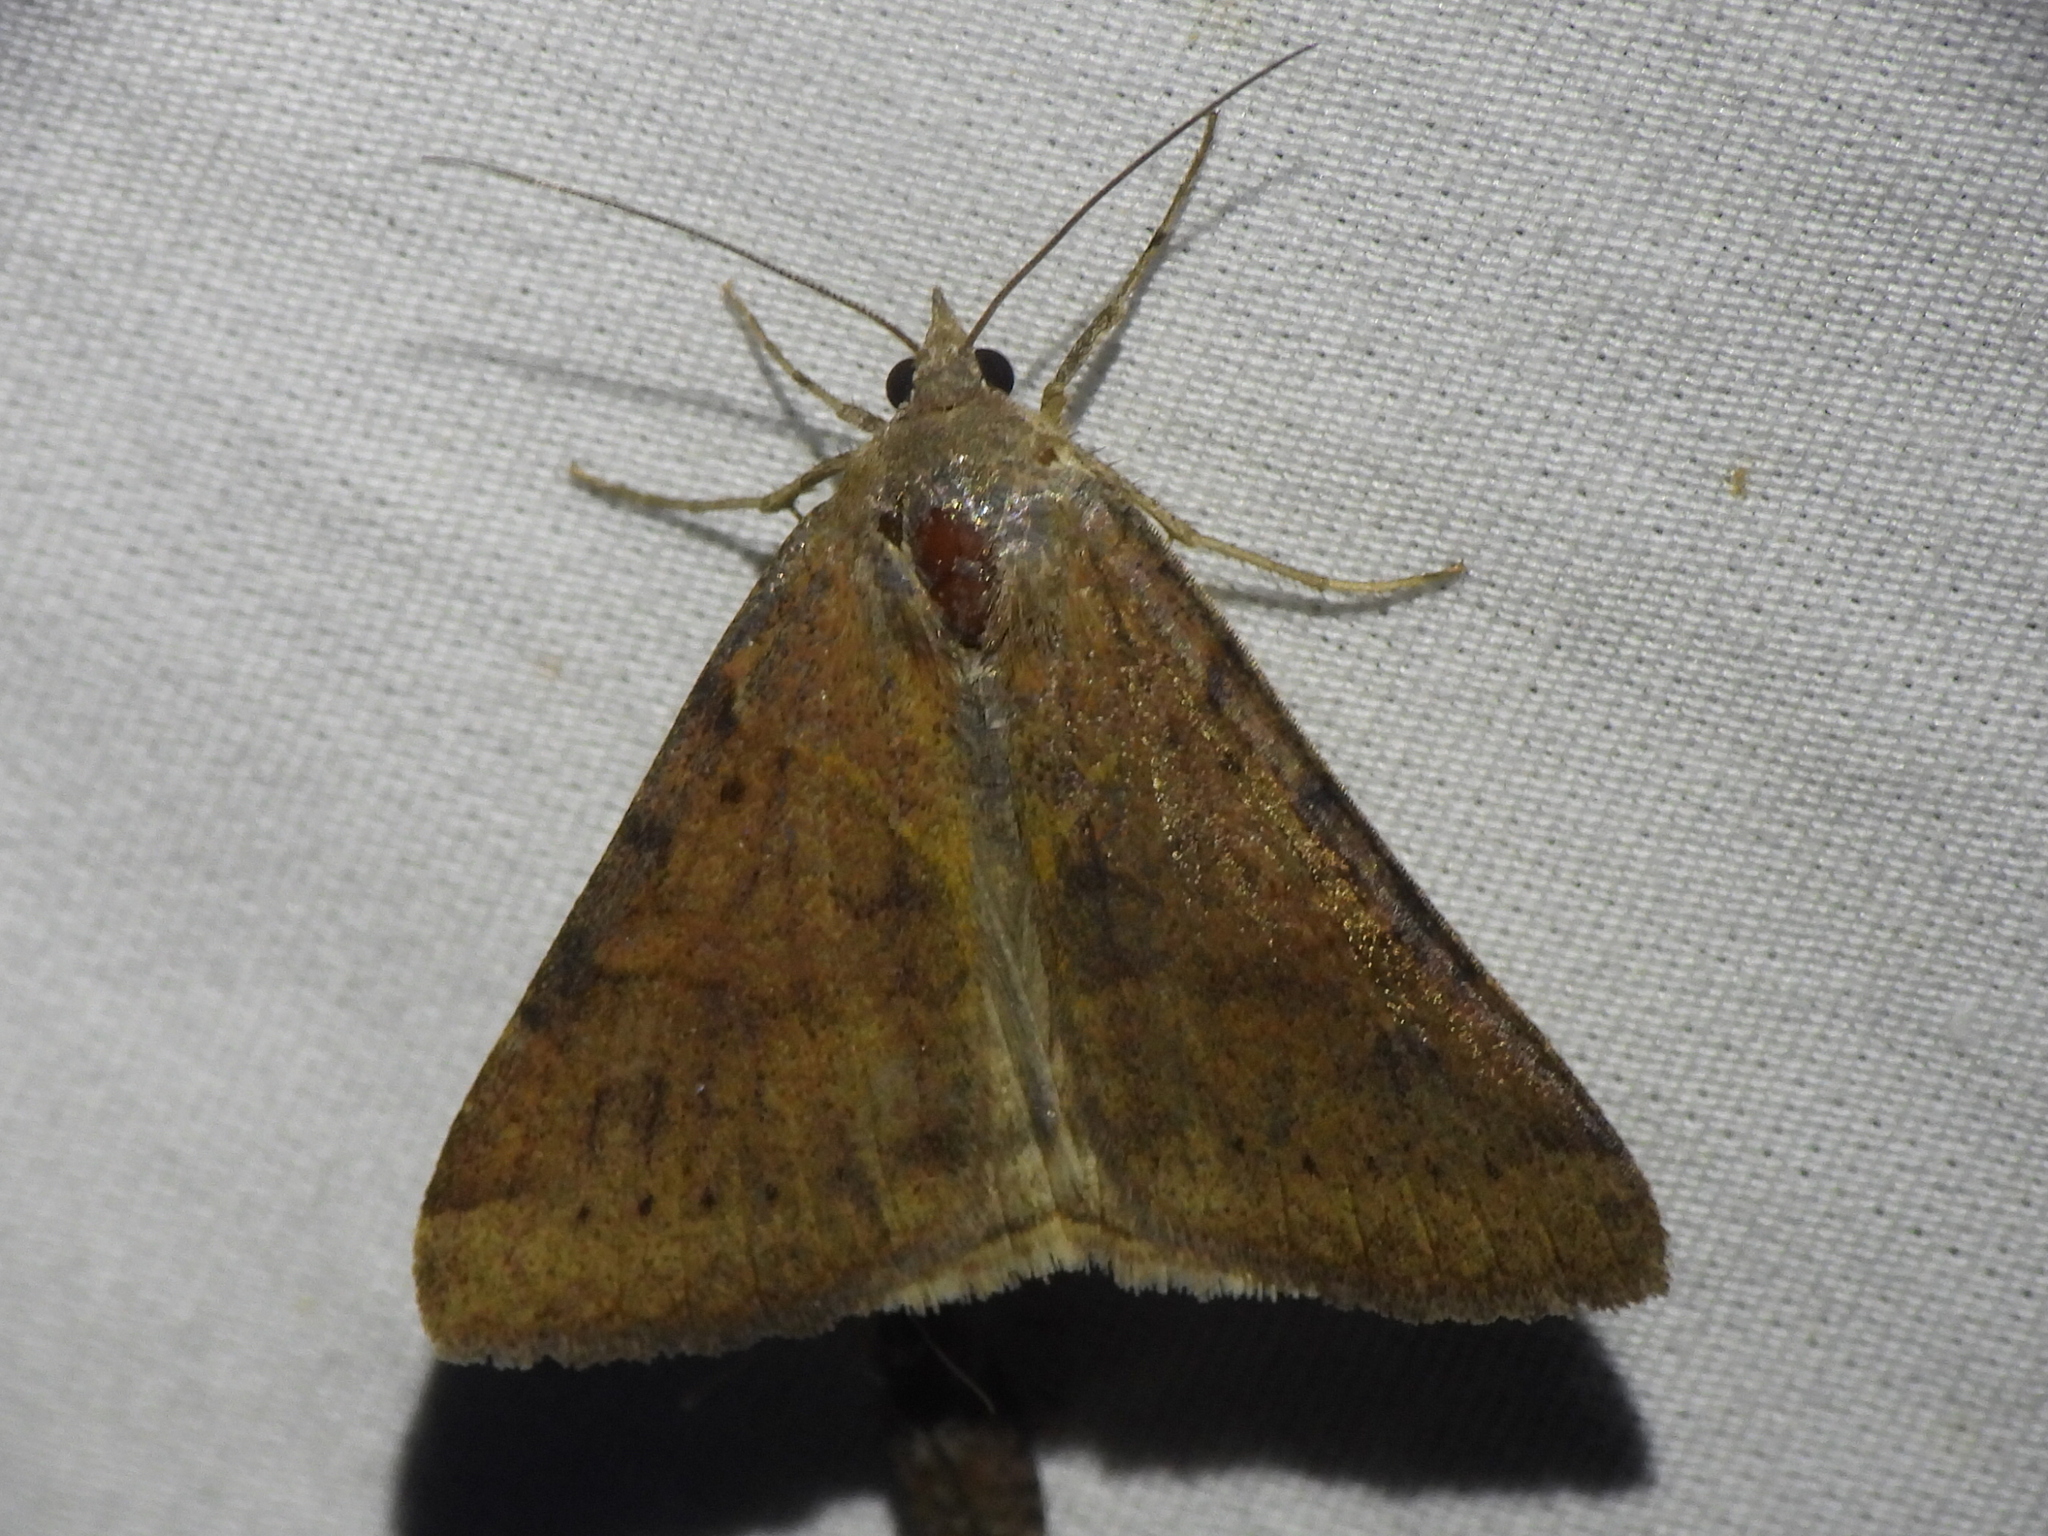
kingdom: Animalia
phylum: Arthropoda
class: Insecta
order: Lepidoptera
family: Erebidae
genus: Caenurgina
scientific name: Caenurgina erechtea
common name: Forage looper moth
